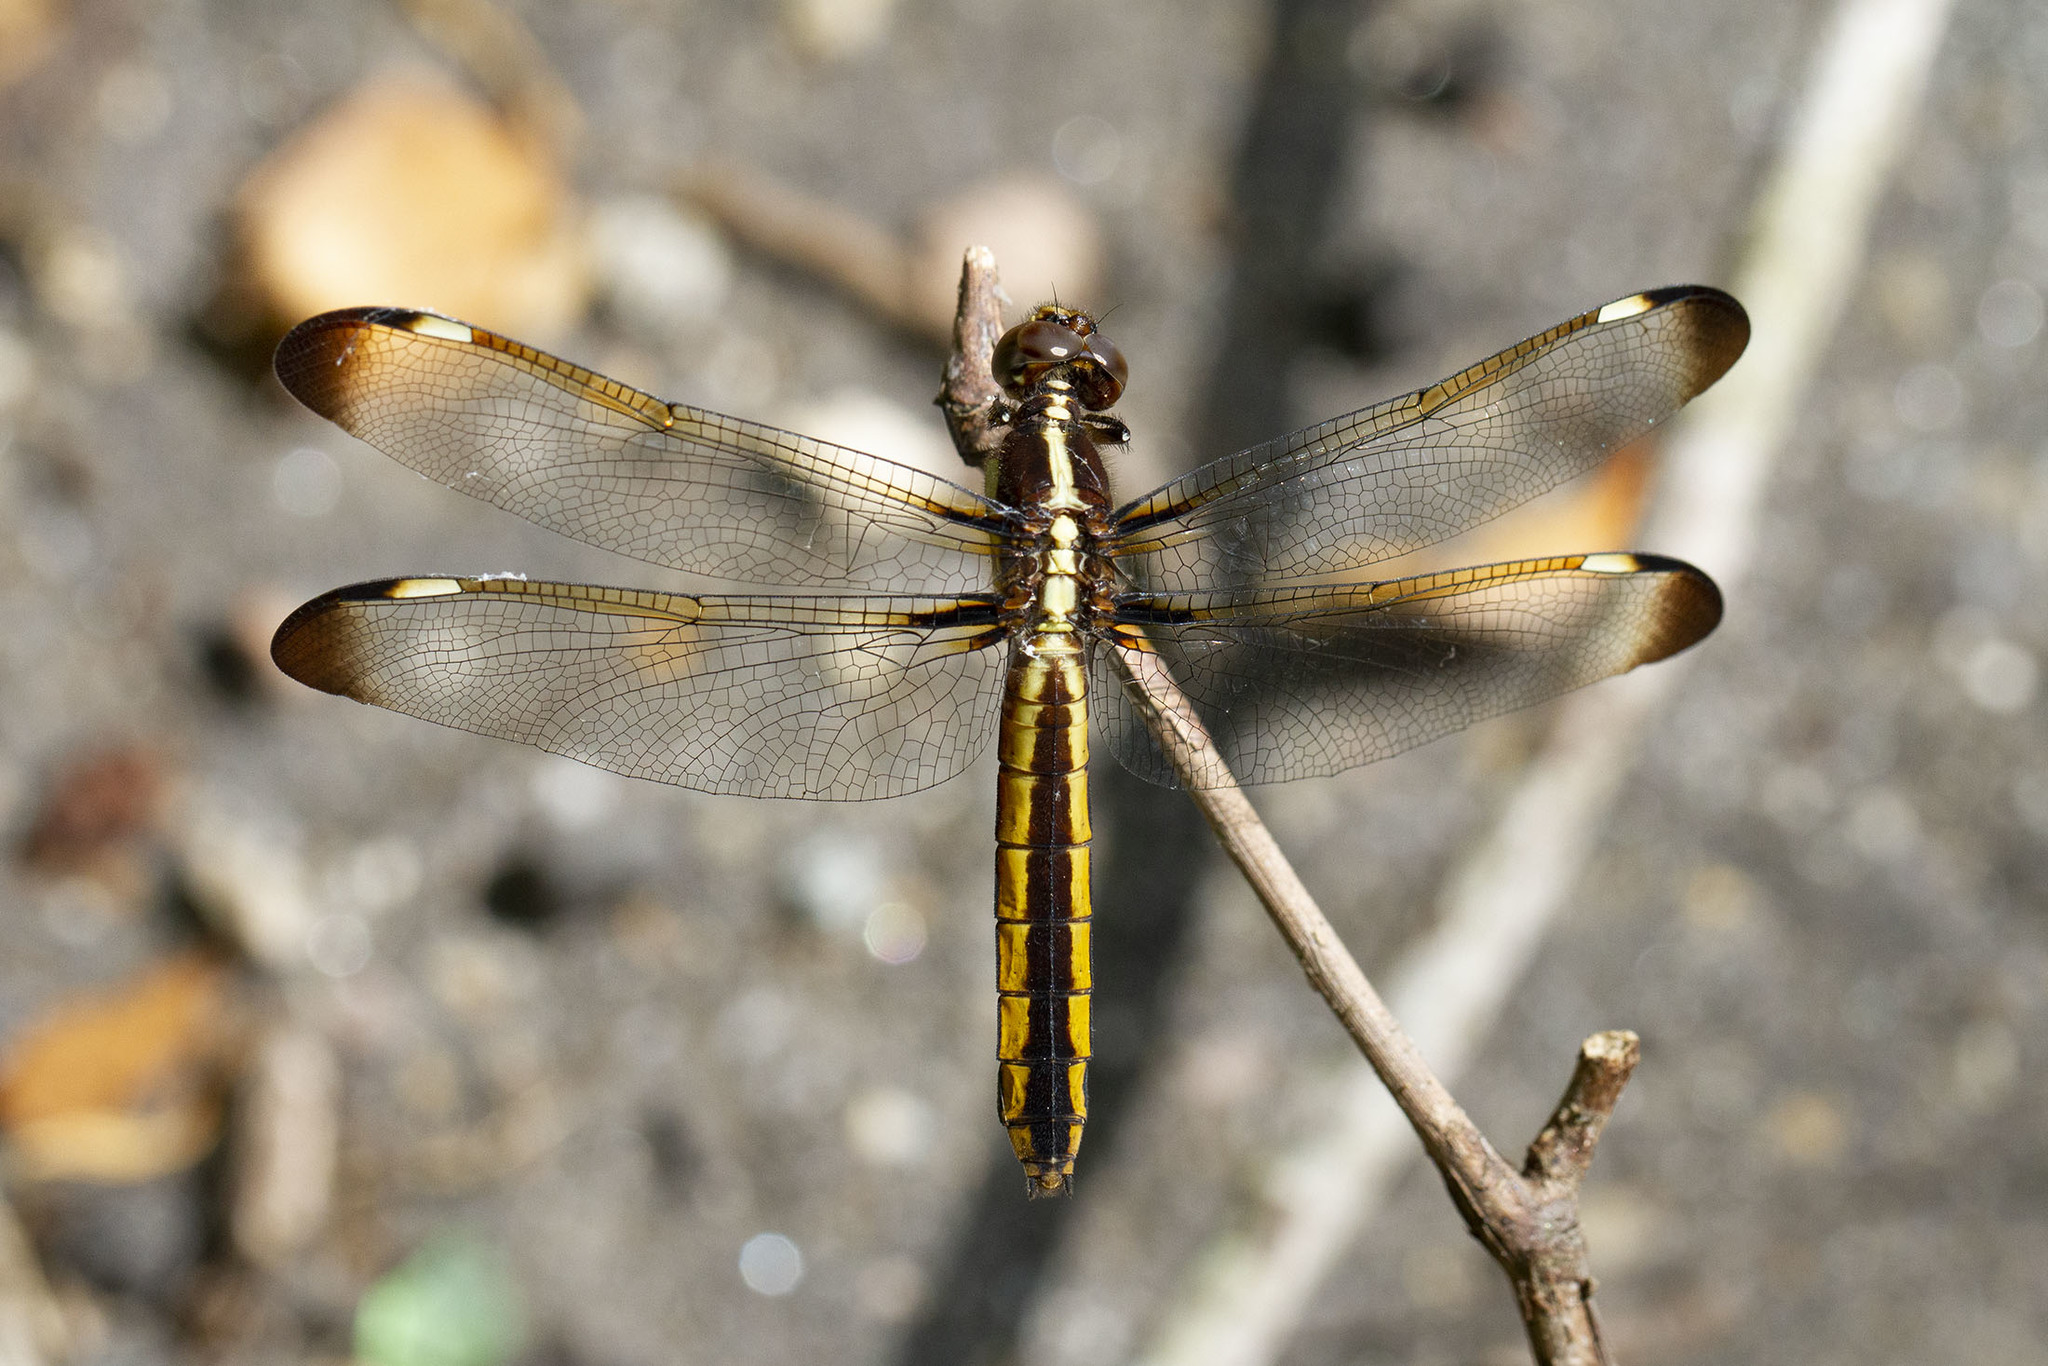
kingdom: Animalia
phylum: Arthropoda
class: Insecta
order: Odonata
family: Libellulidae
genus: Libellula
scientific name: Libellula cyanea
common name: Spangled skimmer
